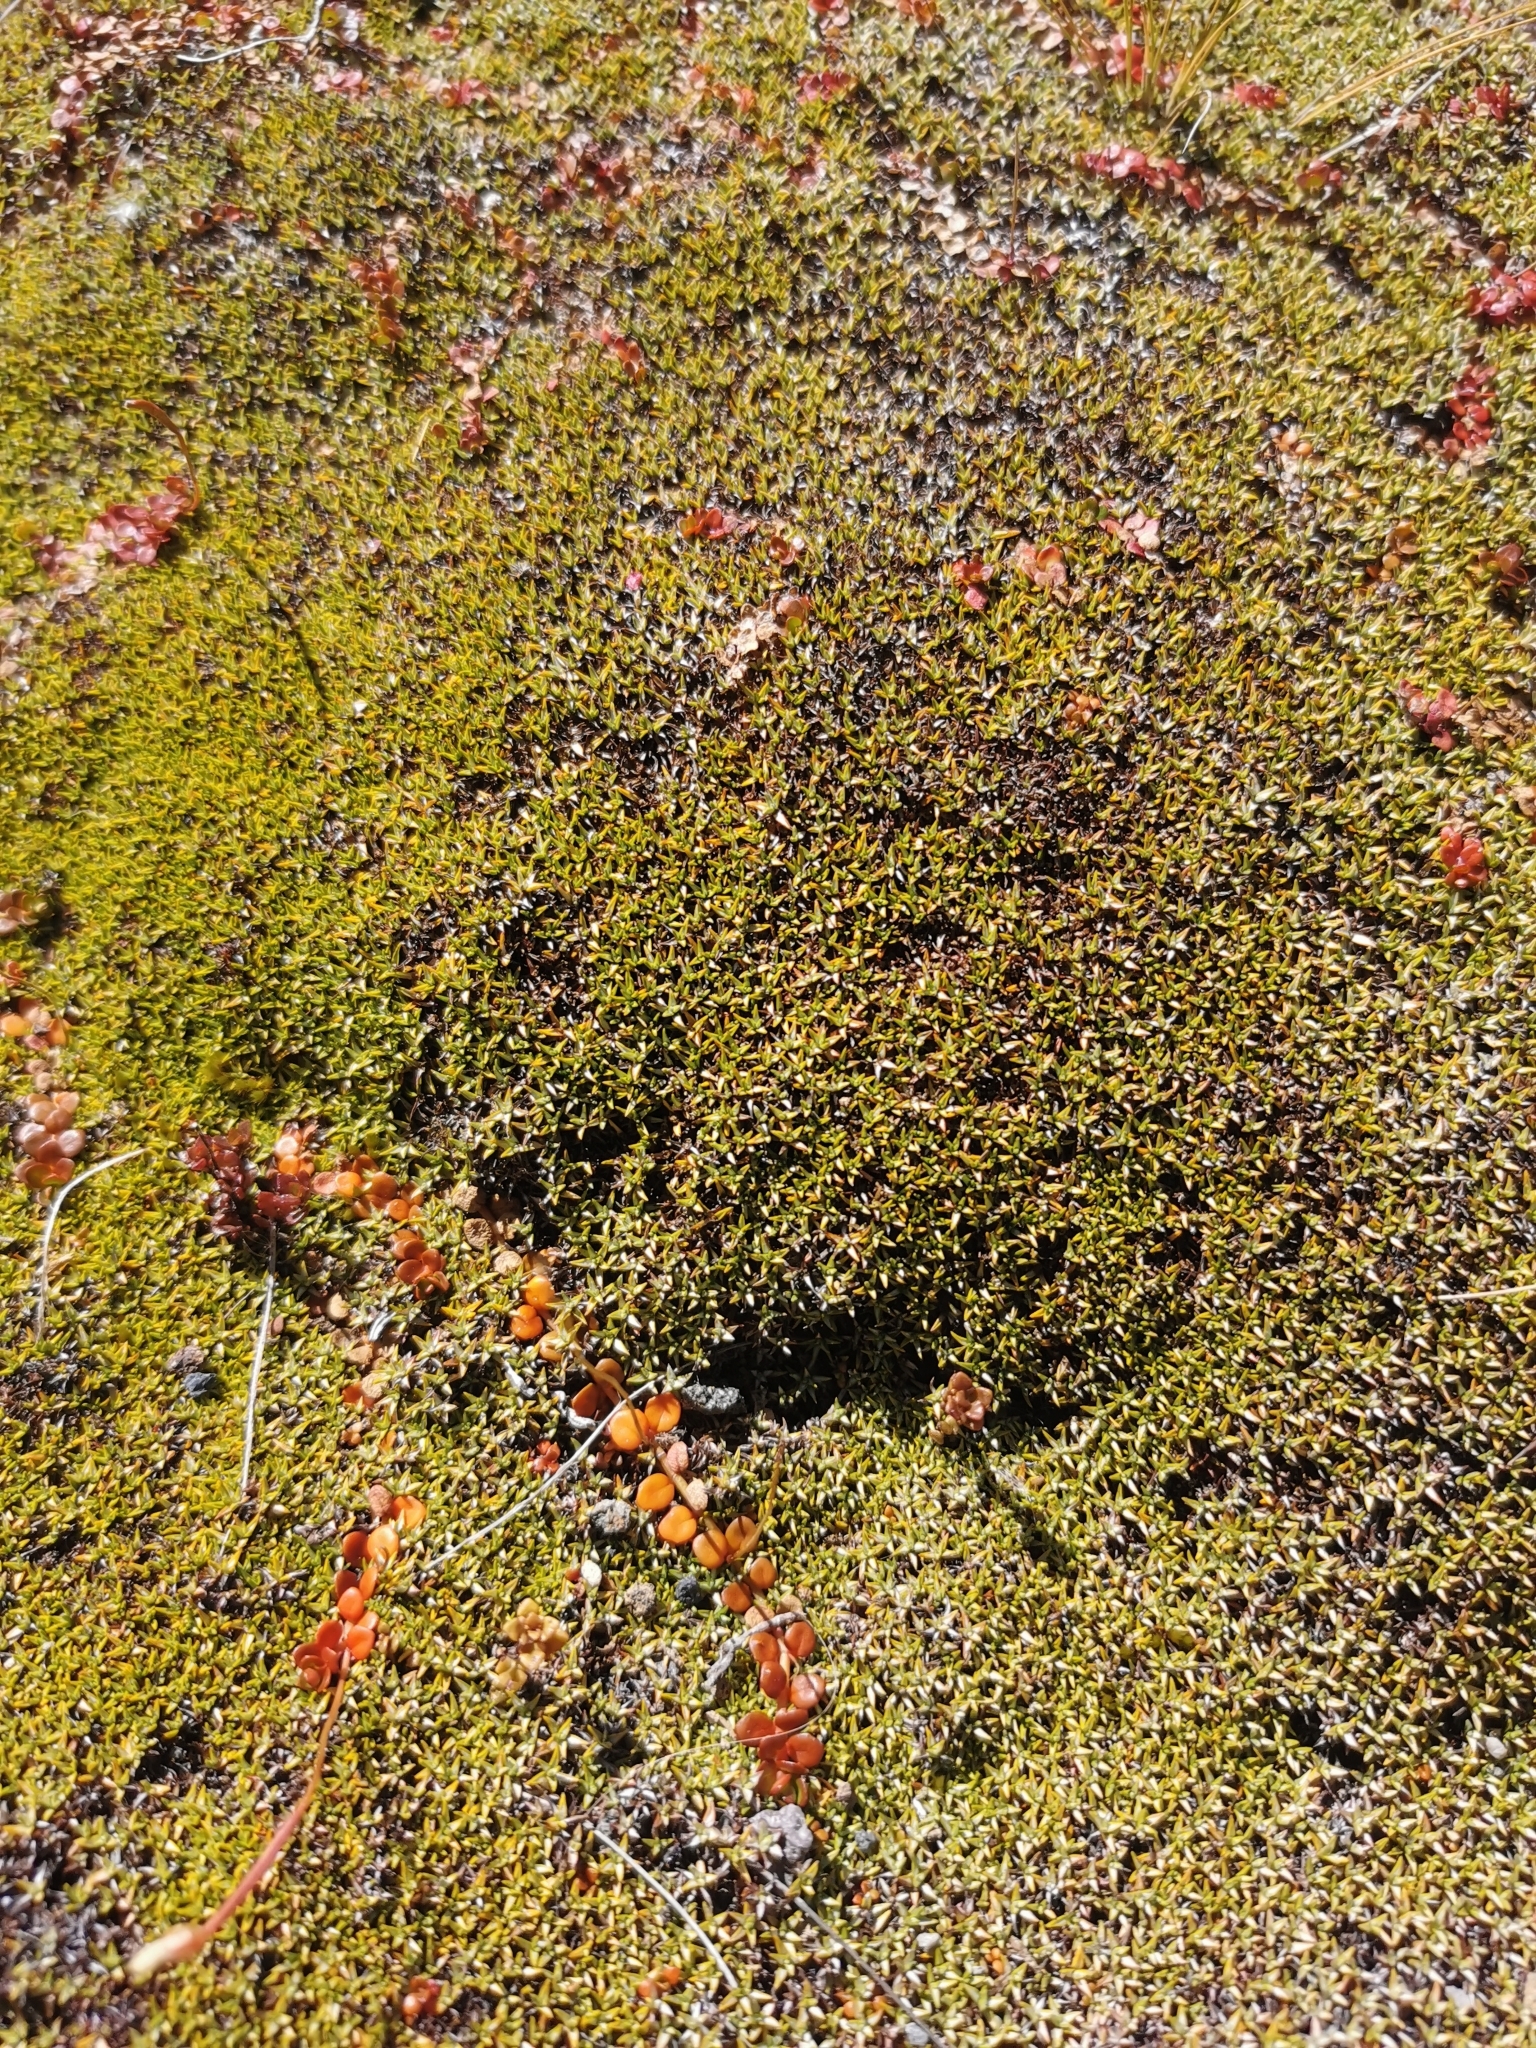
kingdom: Plantae
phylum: Tracheophyta
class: Magnoliopsida
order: Asterales
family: Asteraceae
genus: Raoulia
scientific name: Raoulia tenuicaulis
